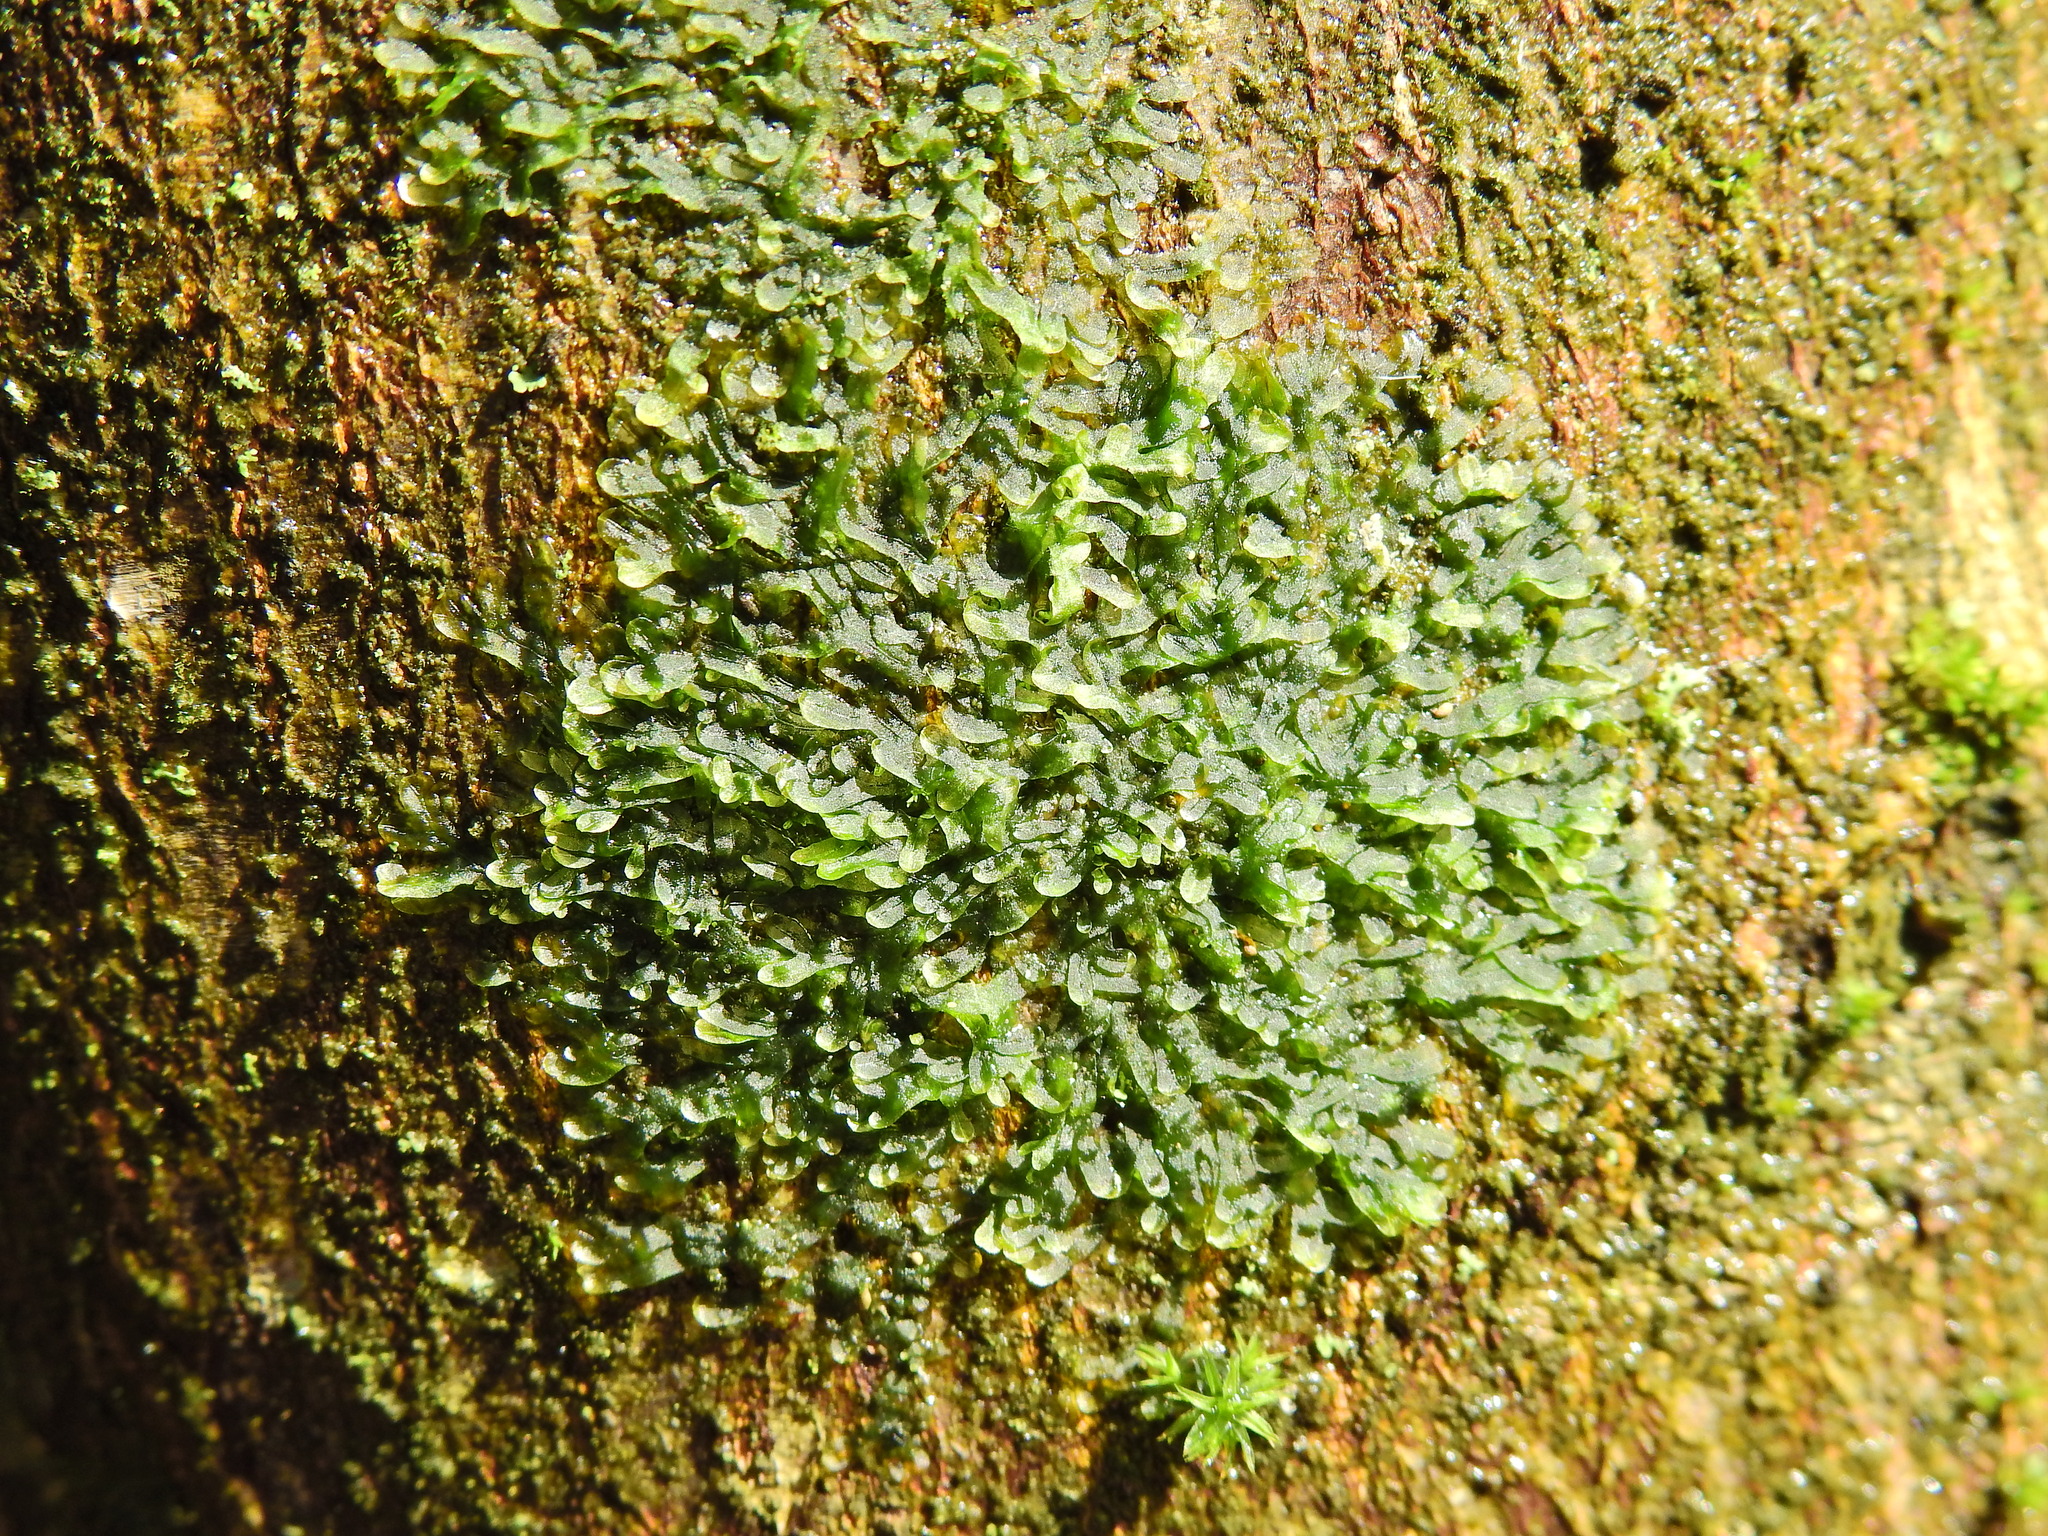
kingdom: Plantae
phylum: Marchantiophyta
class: Jungermanniopsida
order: Metzgeriales
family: Metzgeriaceae
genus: Metzgeria
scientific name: Metzgeria furcata
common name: Forked veilwort
